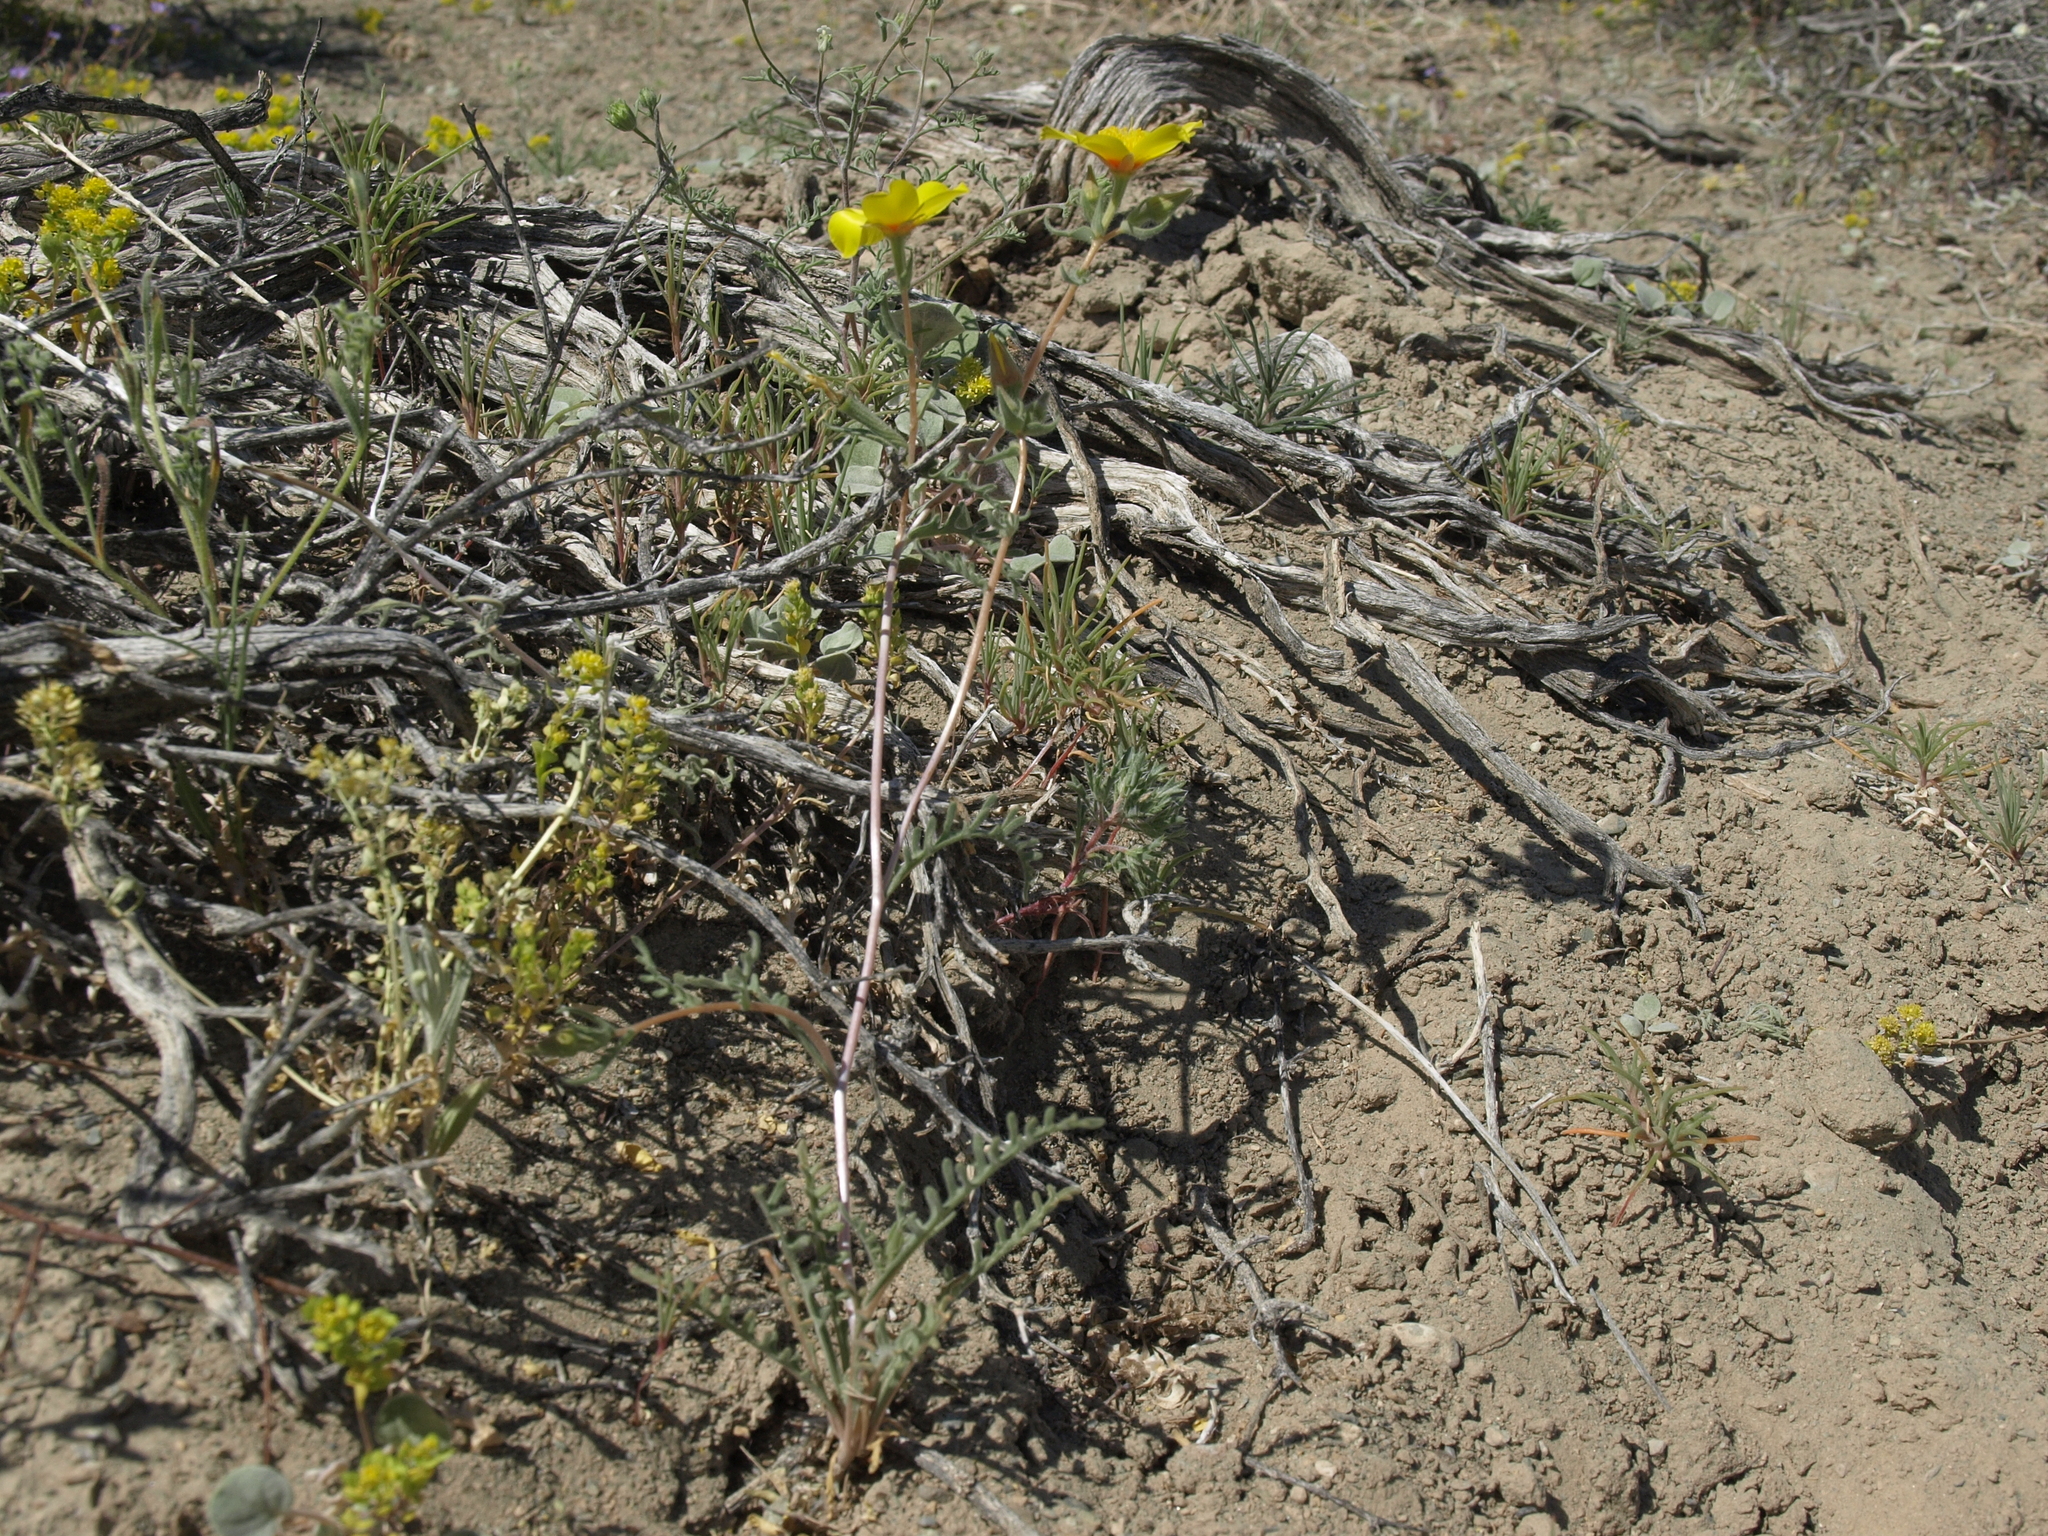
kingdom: Plantae
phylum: Tracheophyta
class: Magnoliopsida
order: Cornales
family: Loasaceae
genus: Mentzelia
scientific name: Mentzelia nitens
